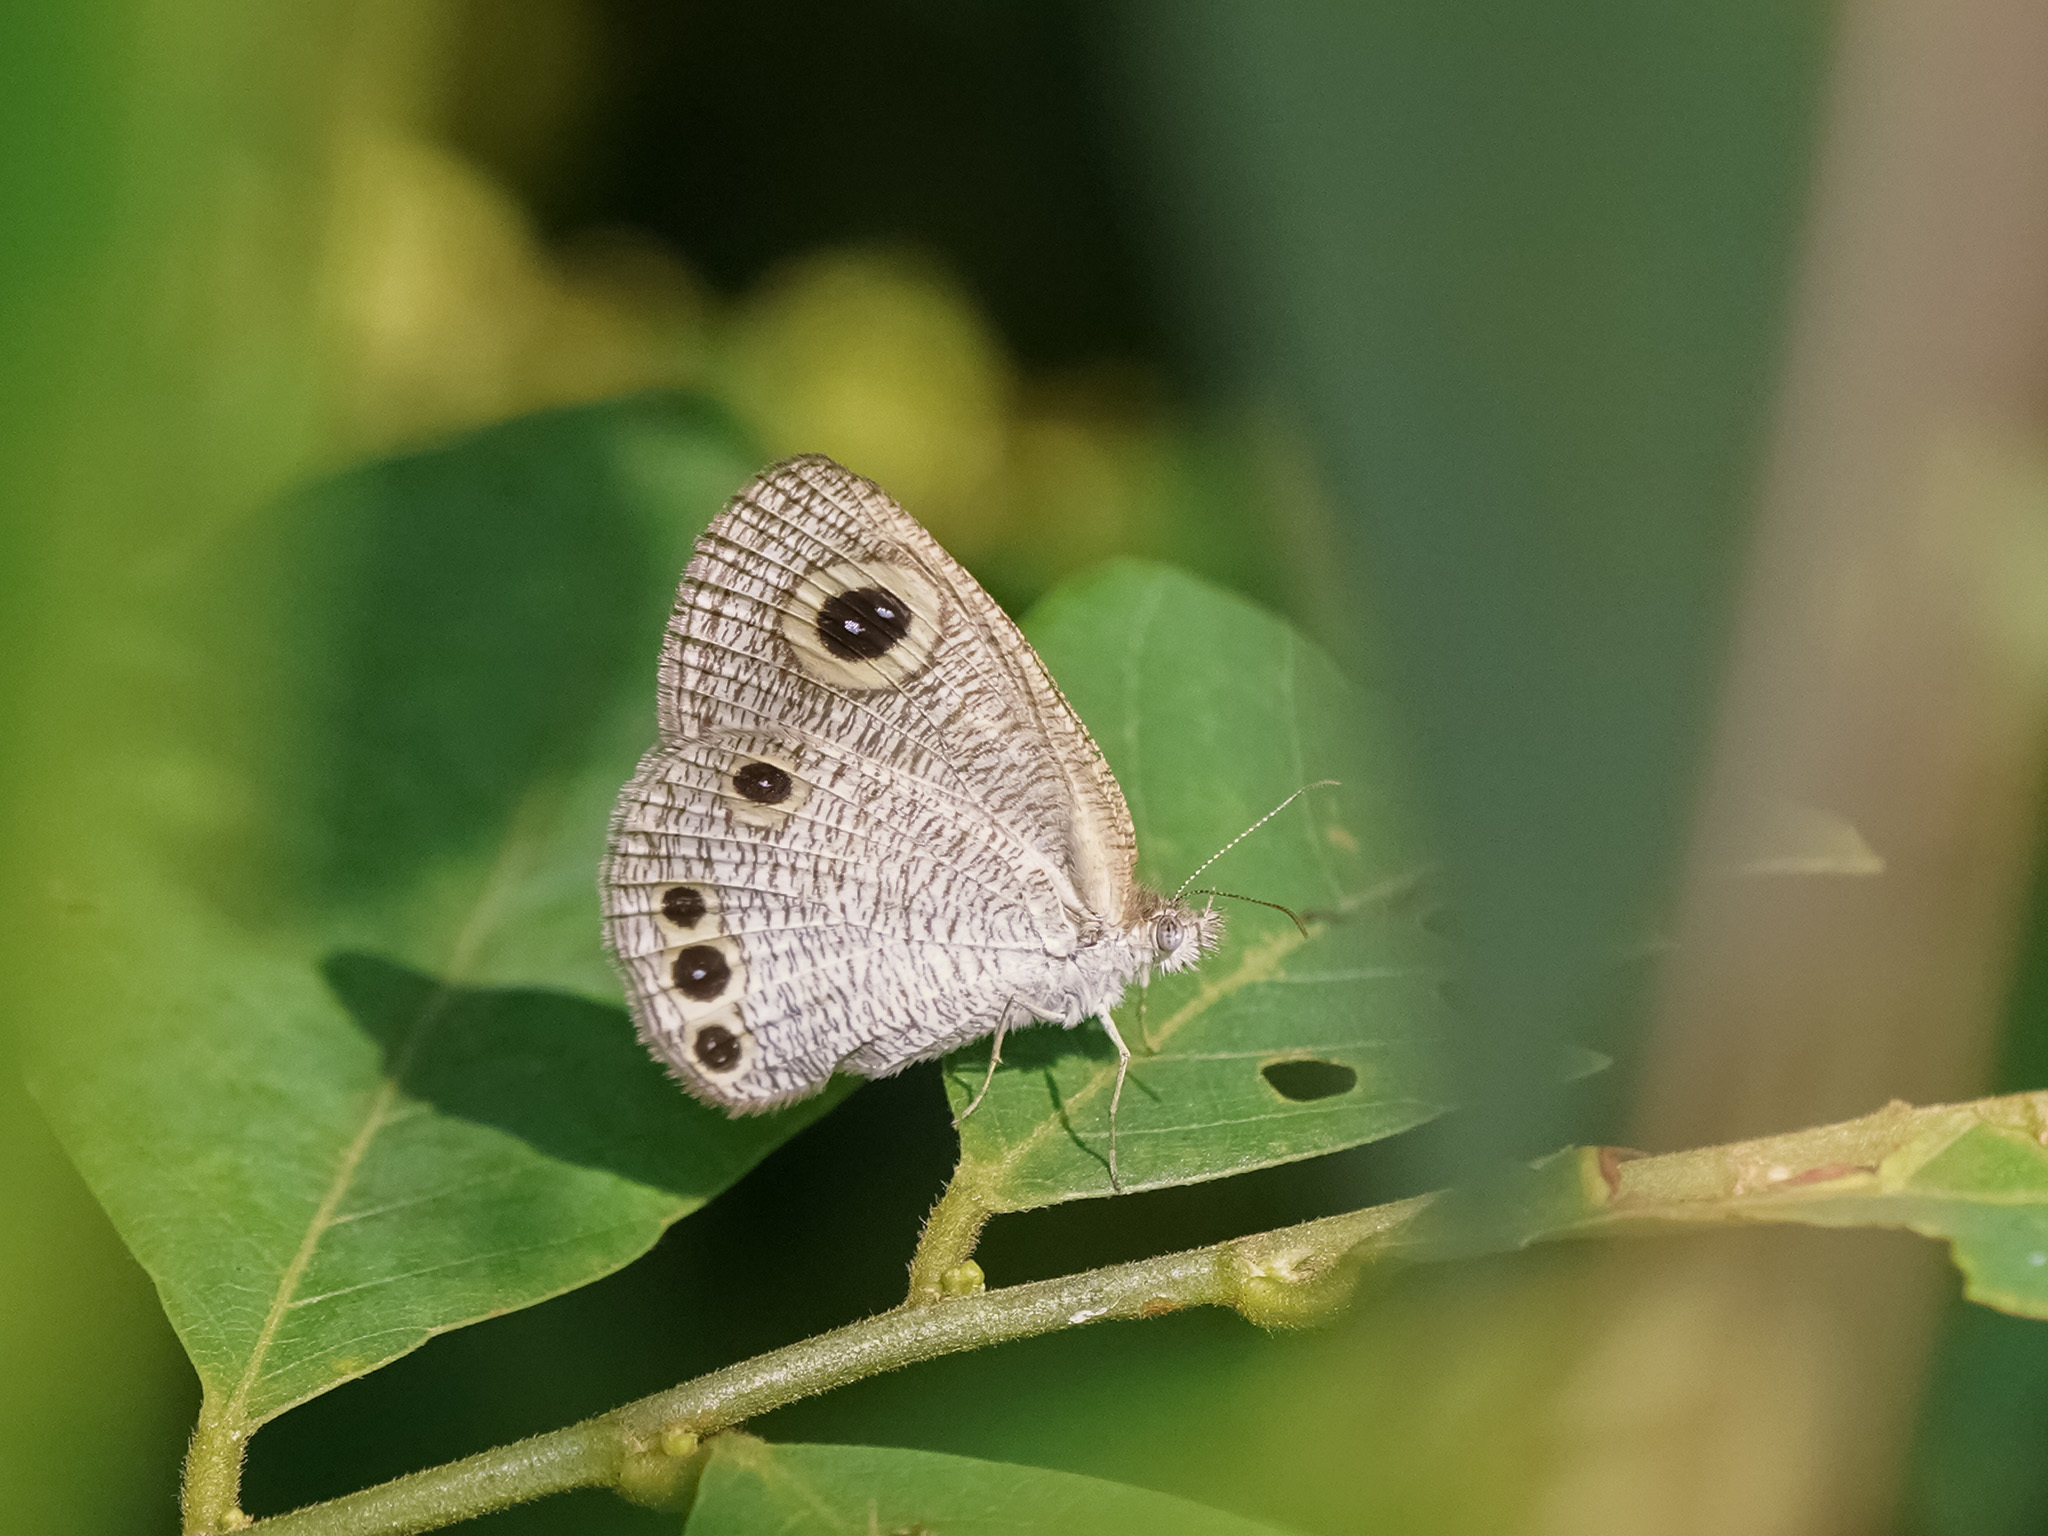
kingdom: Animalia
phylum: Arthropoda
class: Insecta
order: Lepidoptera
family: Nymphalidae
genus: Ypthima
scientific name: Ypthima huebneri
